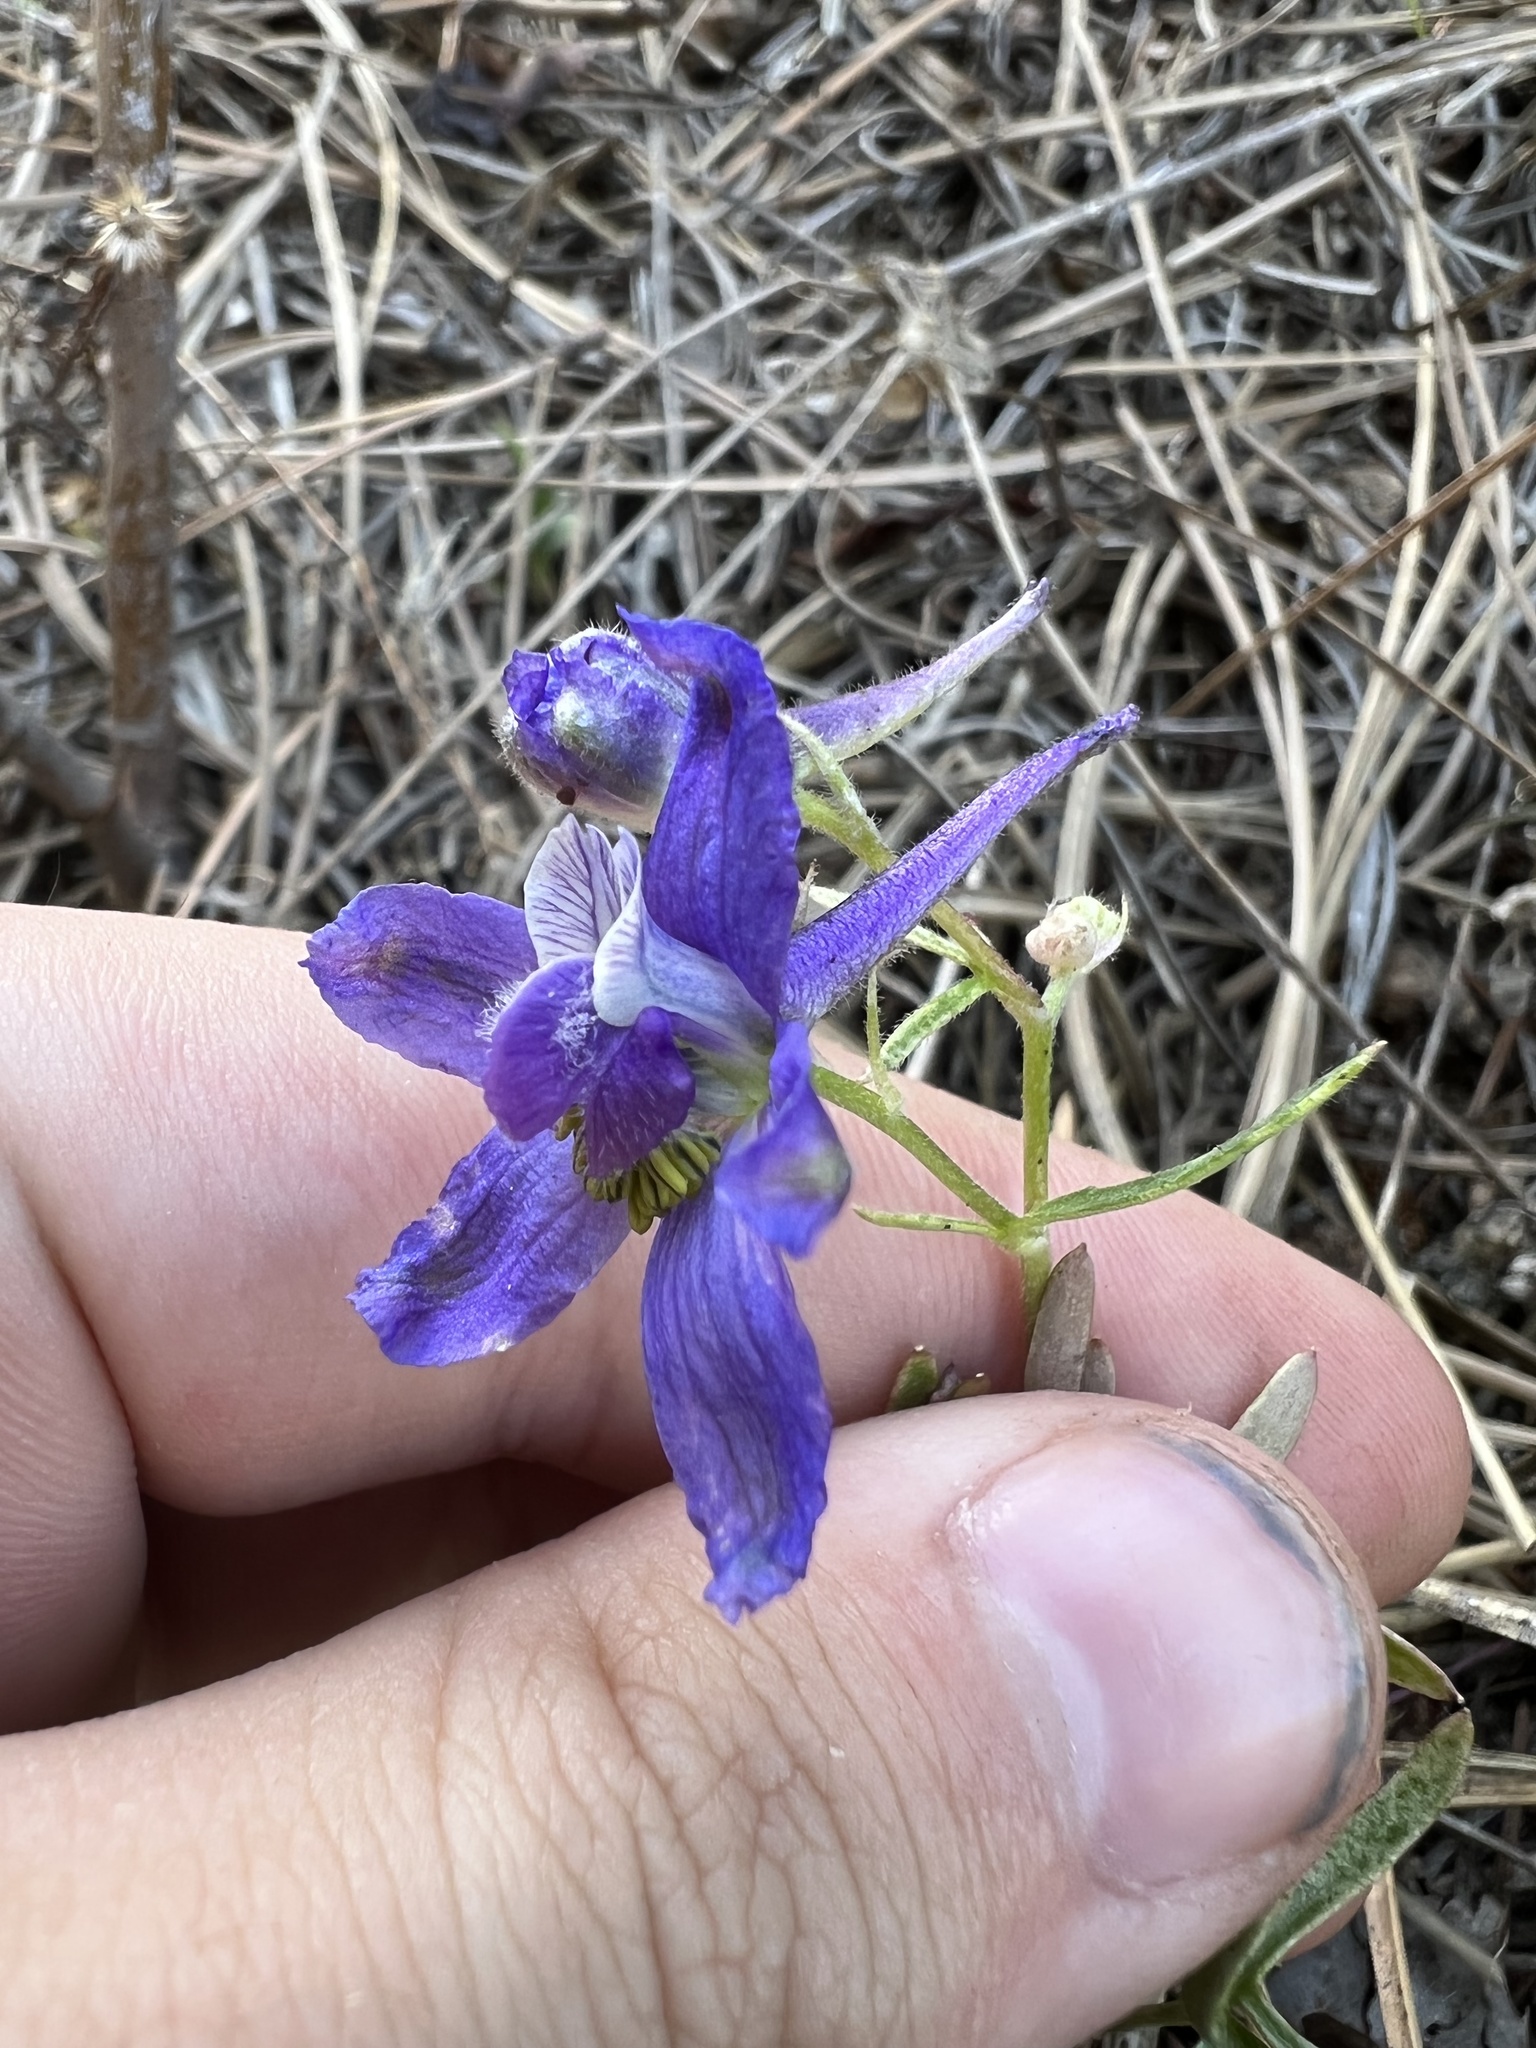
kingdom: Plantae
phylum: Tracheophyta
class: Magnoliopsida
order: Ranunculales
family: Ranunculaceae
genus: Delphinium
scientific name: Delphinium nuttallianum
